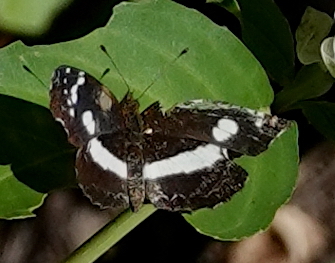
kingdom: Animalia
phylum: Arthropoda
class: Insecta
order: Lepidoptera
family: Nymphalidae
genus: Eresia
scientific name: Eresia clio
